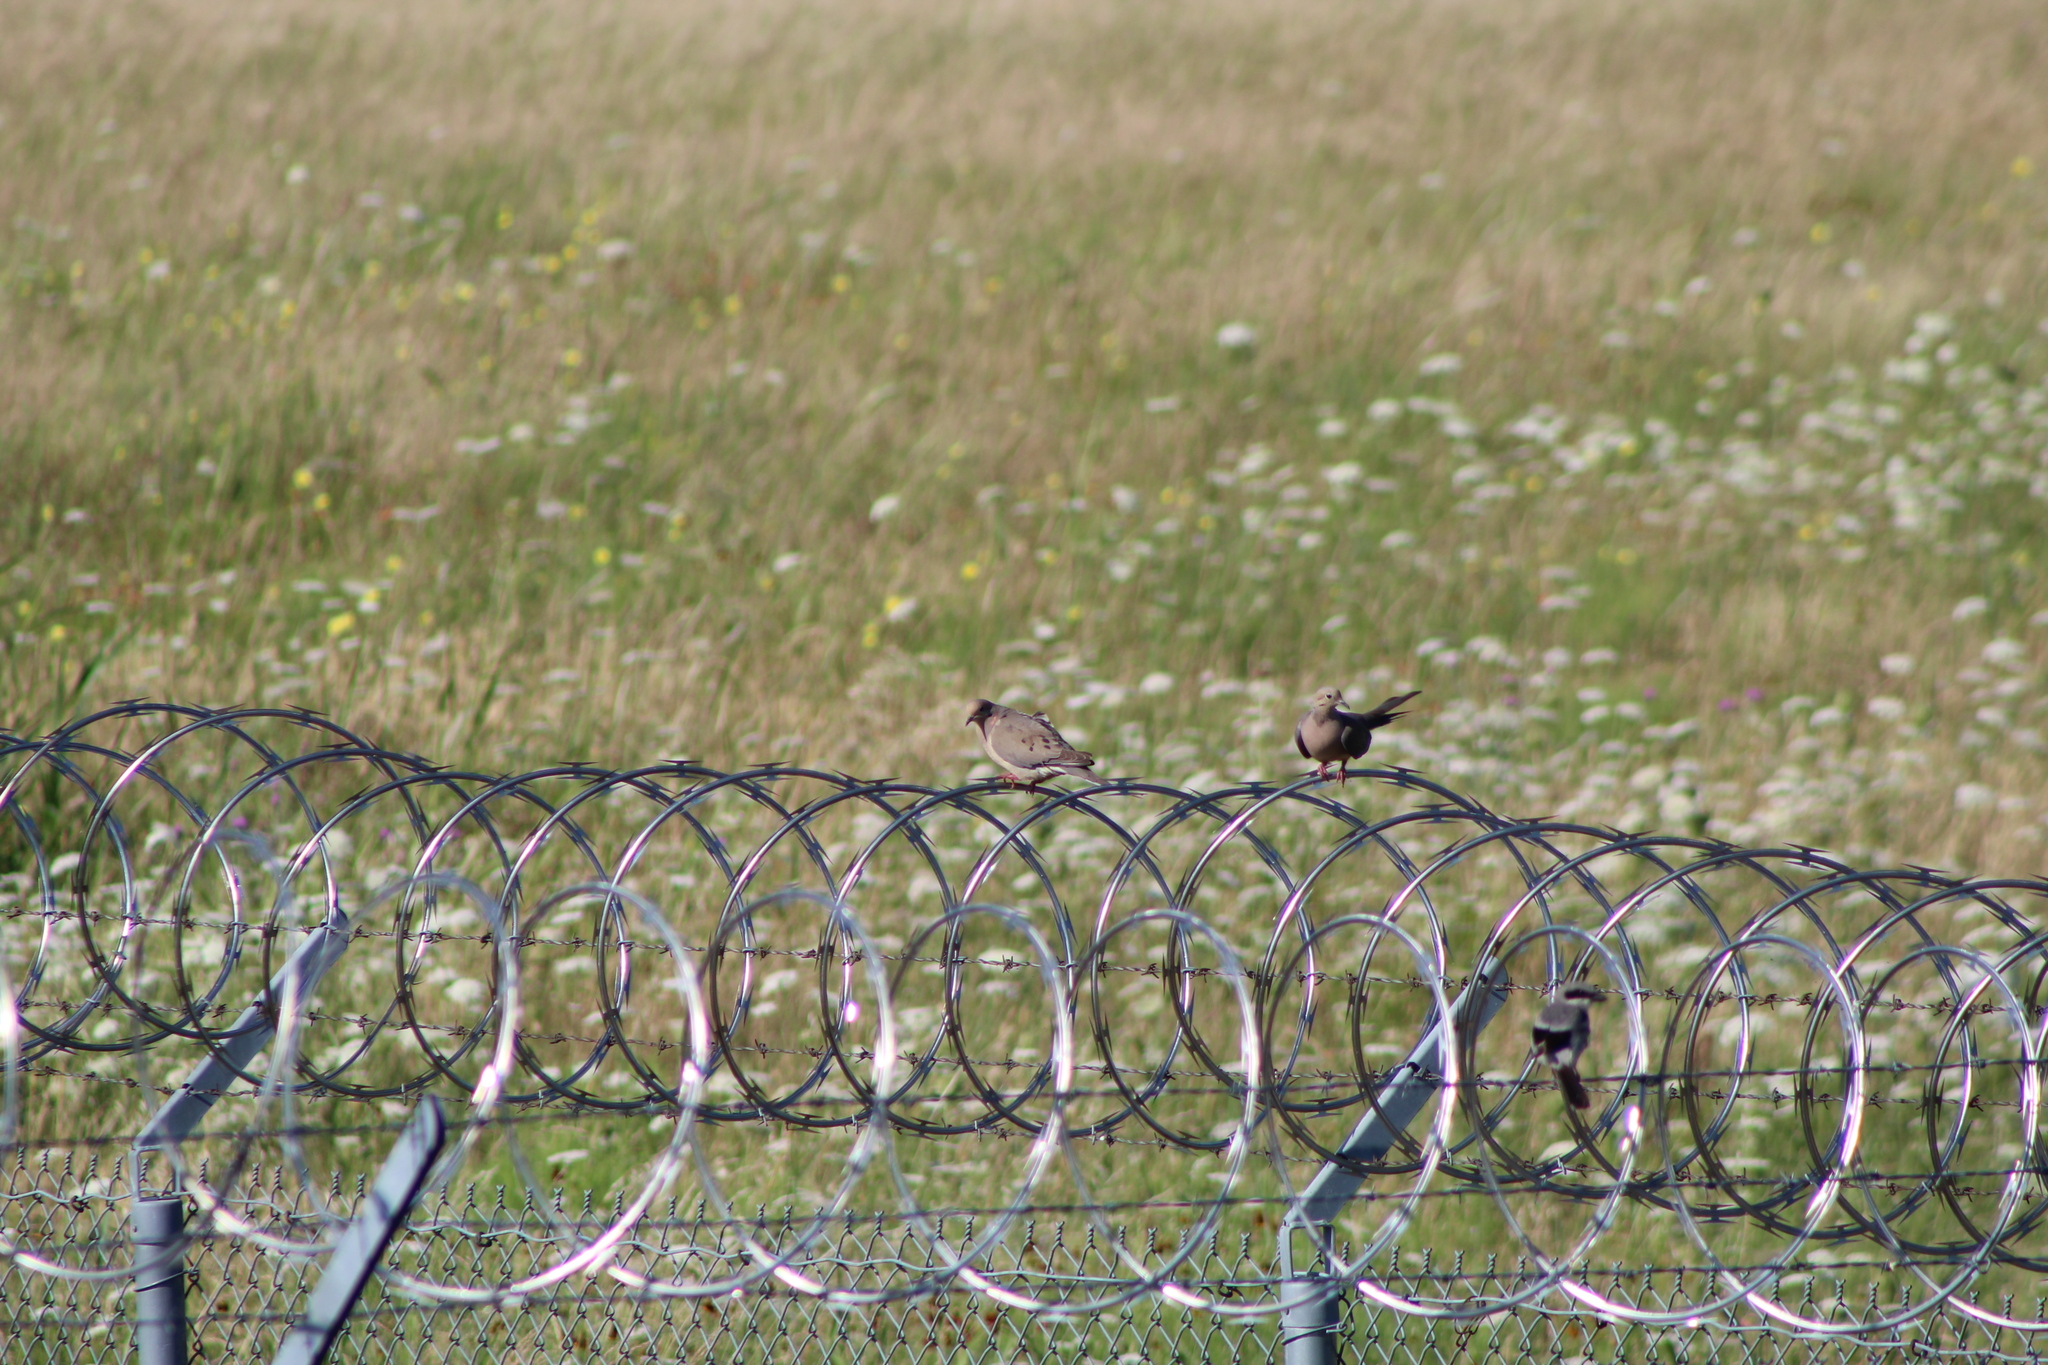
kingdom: Animalia
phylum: Chordata
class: Aves
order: Columbiformes
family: Columbidae
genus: Zenaida
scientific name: Zenaida macroura
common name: Mourning dove
